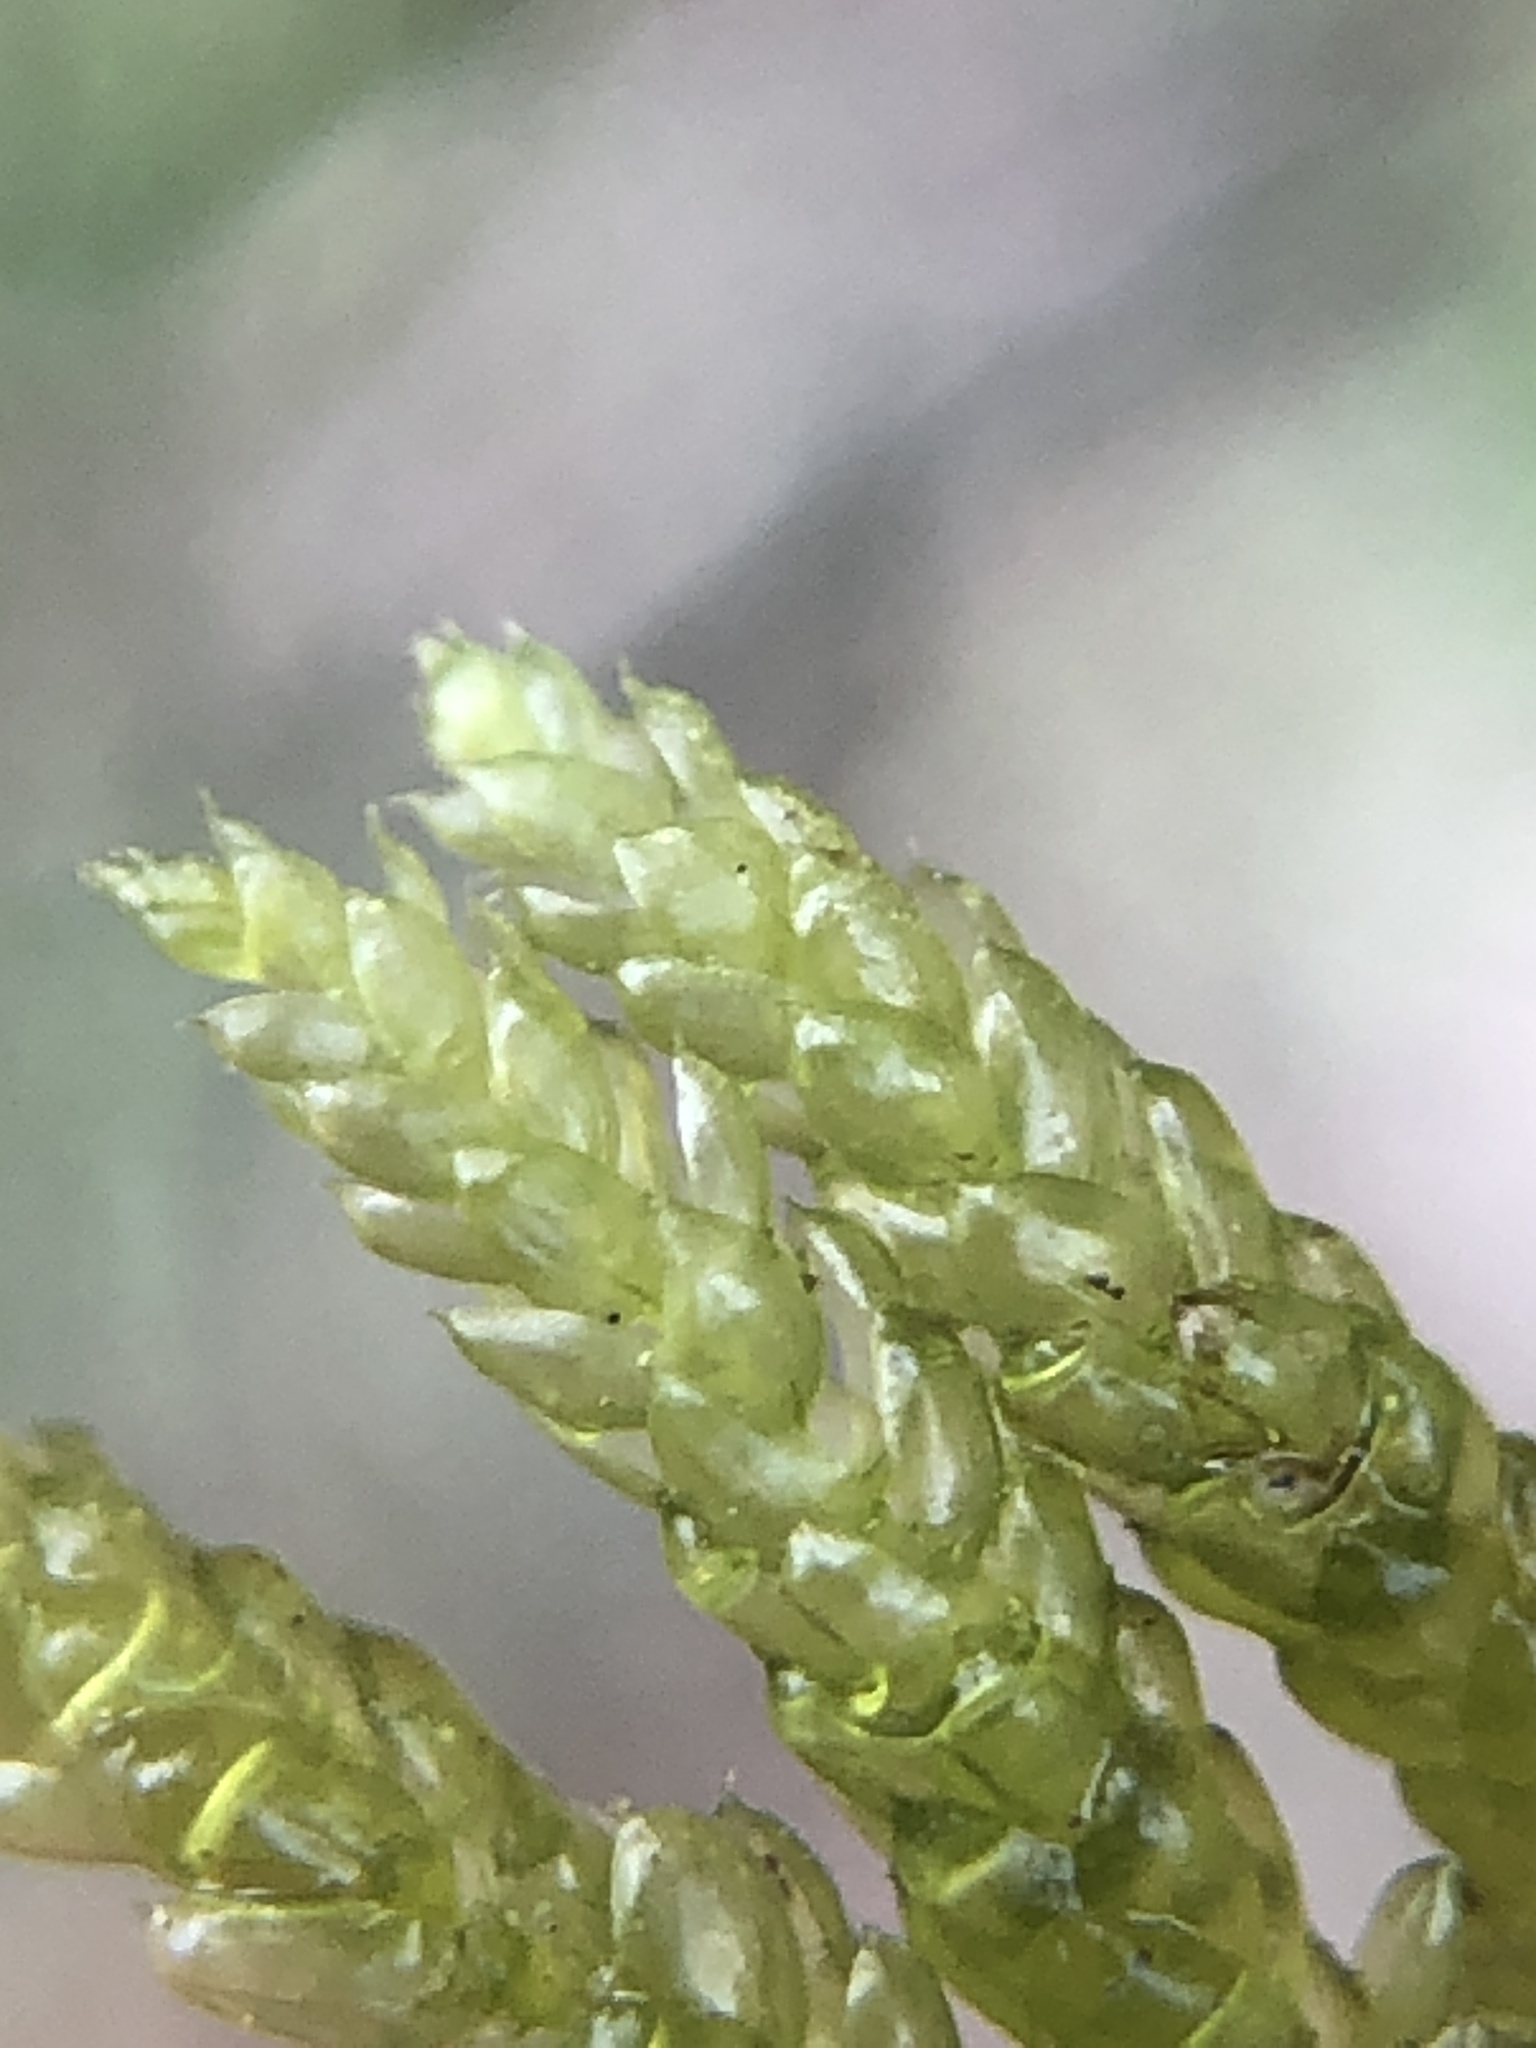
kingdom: Plantae
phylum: Bryophyta
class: Bryopsida
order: Hypnales
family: Brachytheciaceae
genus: Pseudoscleropodium
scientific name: Pseudoscleropodium purum
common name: Neat feather-moss
